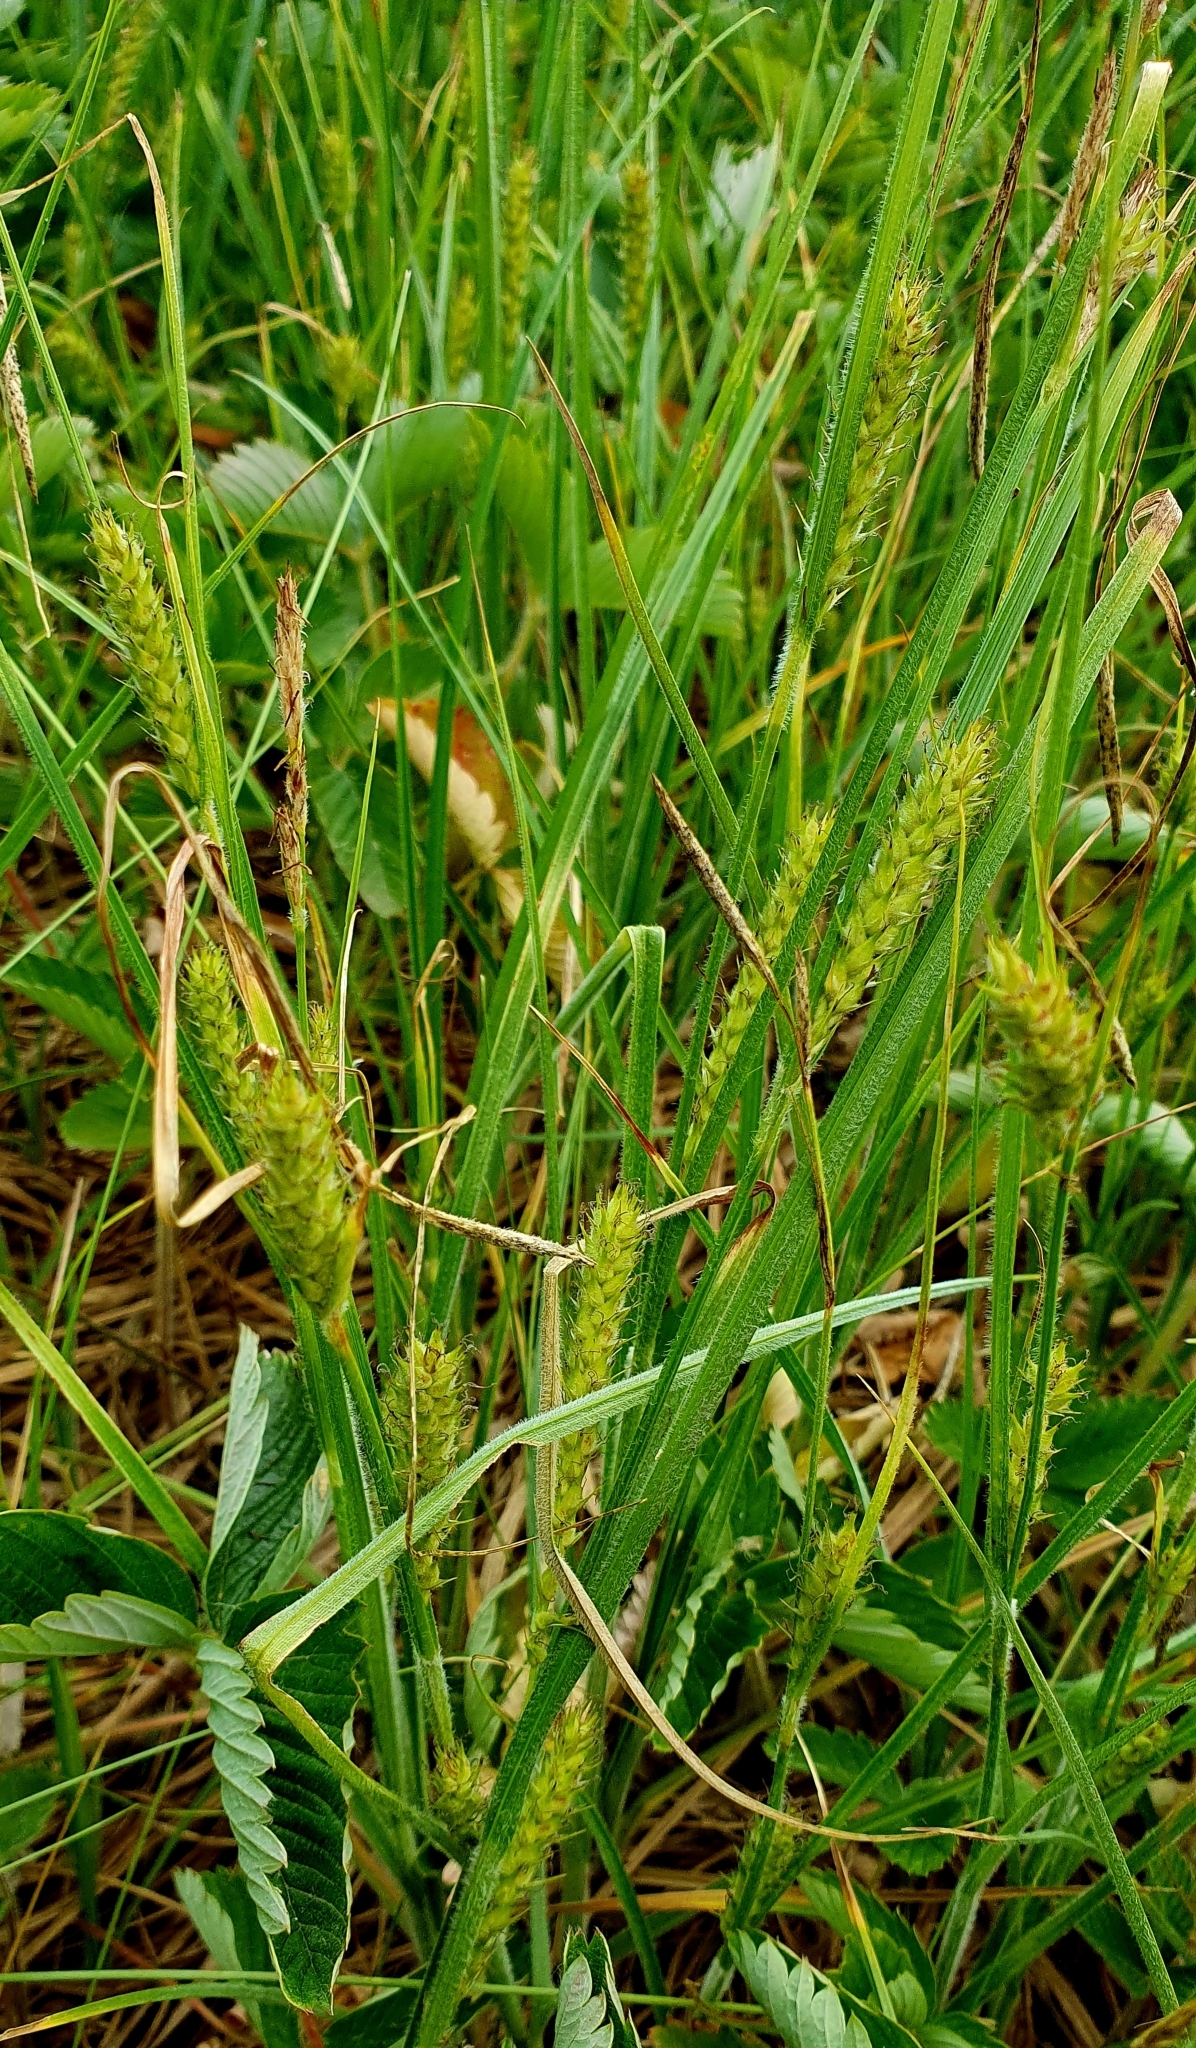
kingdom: Plantae
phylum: Tracheophyta
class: Liliopsida
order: Poales
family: Cyperaceae
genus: Carex
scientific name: Carex hirta
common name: Hairy sedge
